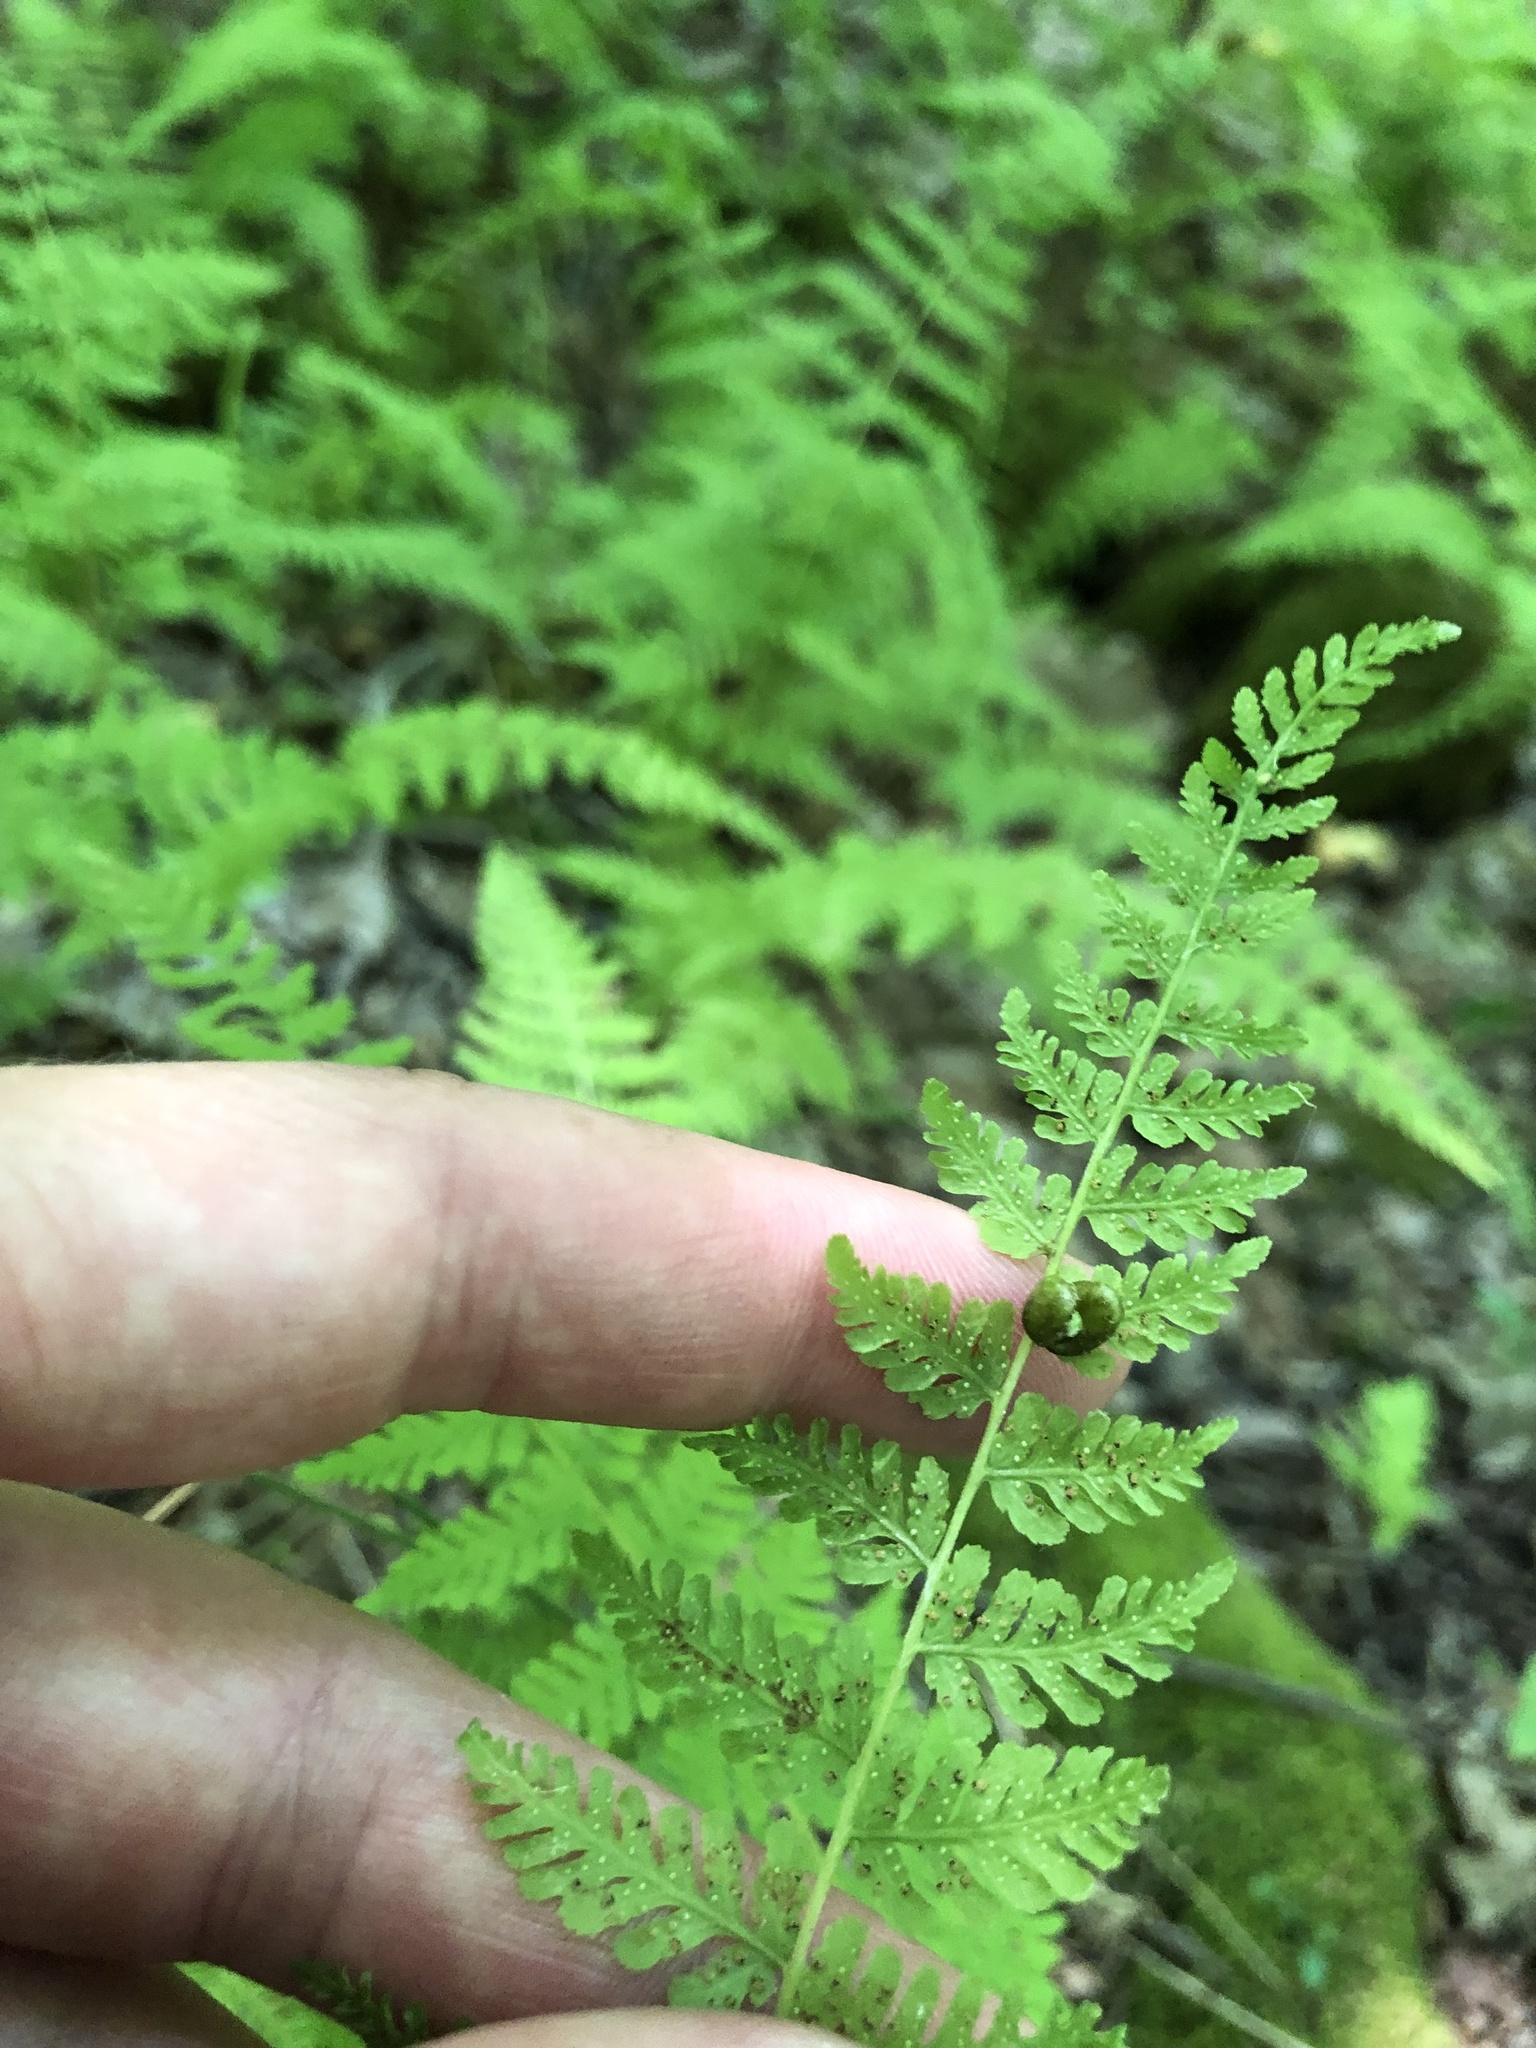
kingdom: Plantae
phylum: Tracheophyta
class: Polypodiopsida
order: Polypodiales
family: Cystopteridaceae
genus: Cystopteris
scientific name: Cystopteris bulbifera
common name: Bulblet bladder fern
